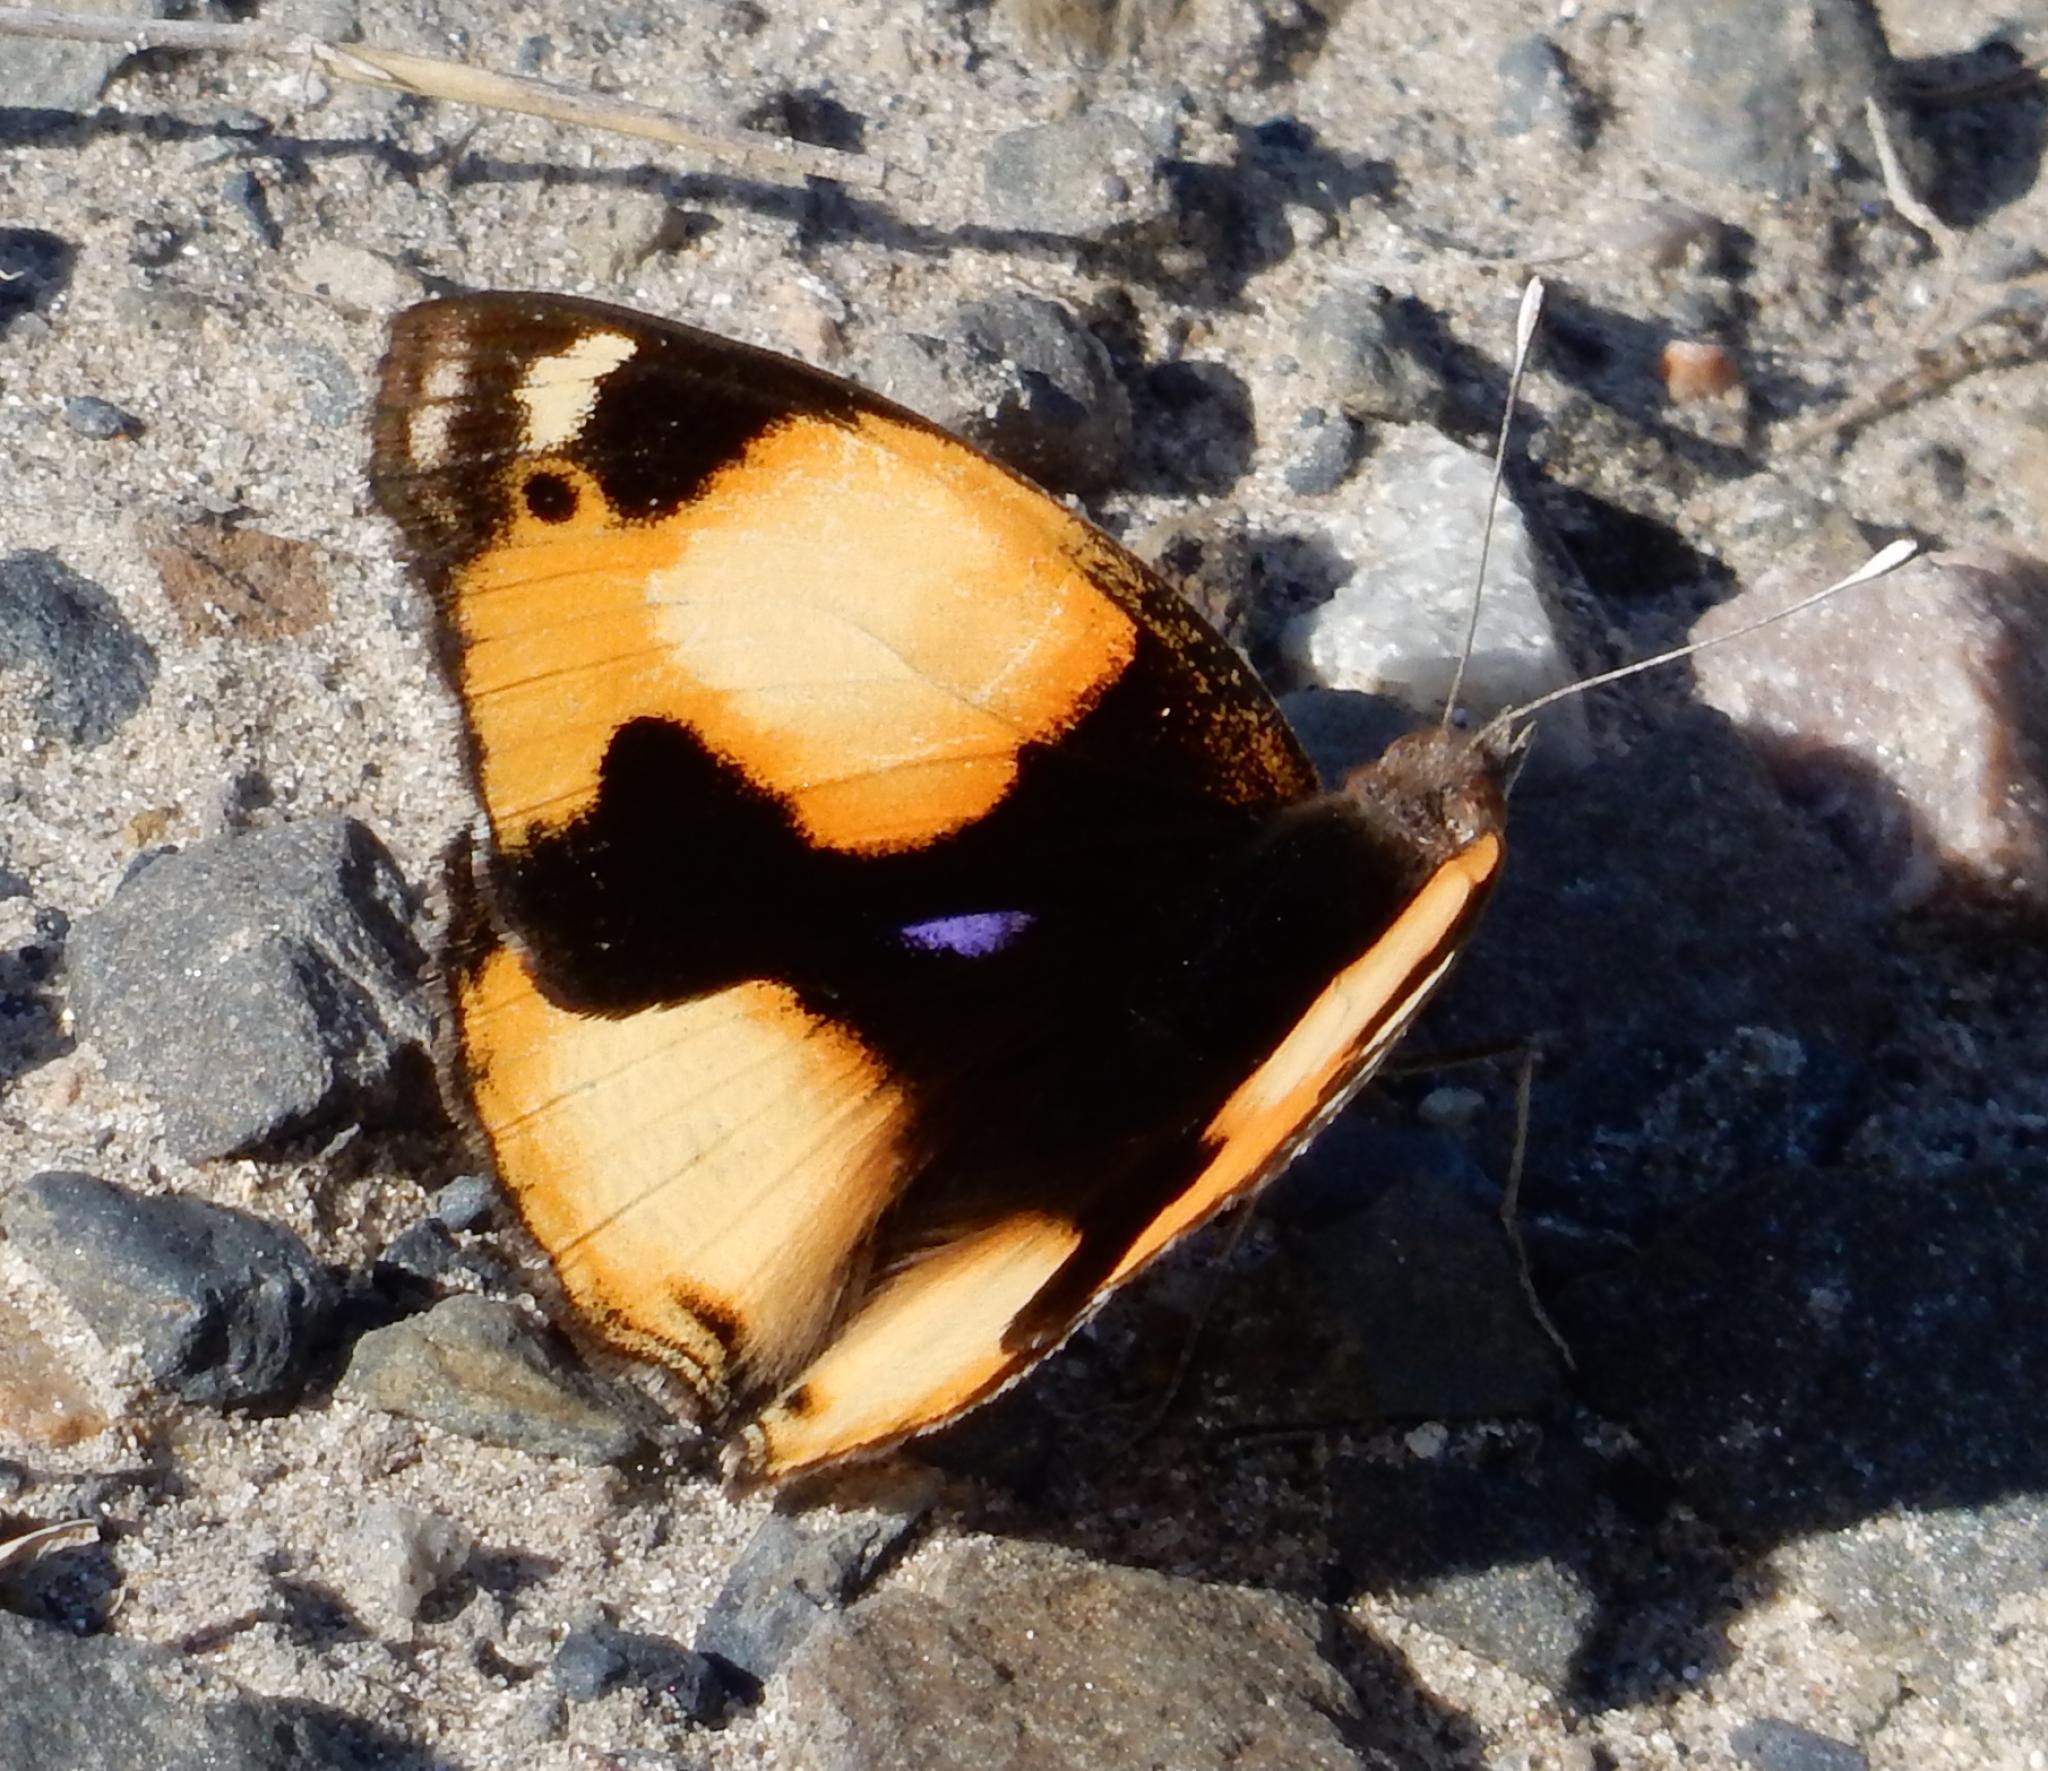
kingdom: Animalia
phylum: Arthropoda
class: Insecta
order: Lepidoptera
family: Nymphalidae
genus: Junonia
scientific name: Junonia hierta
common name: Yellow pansy
